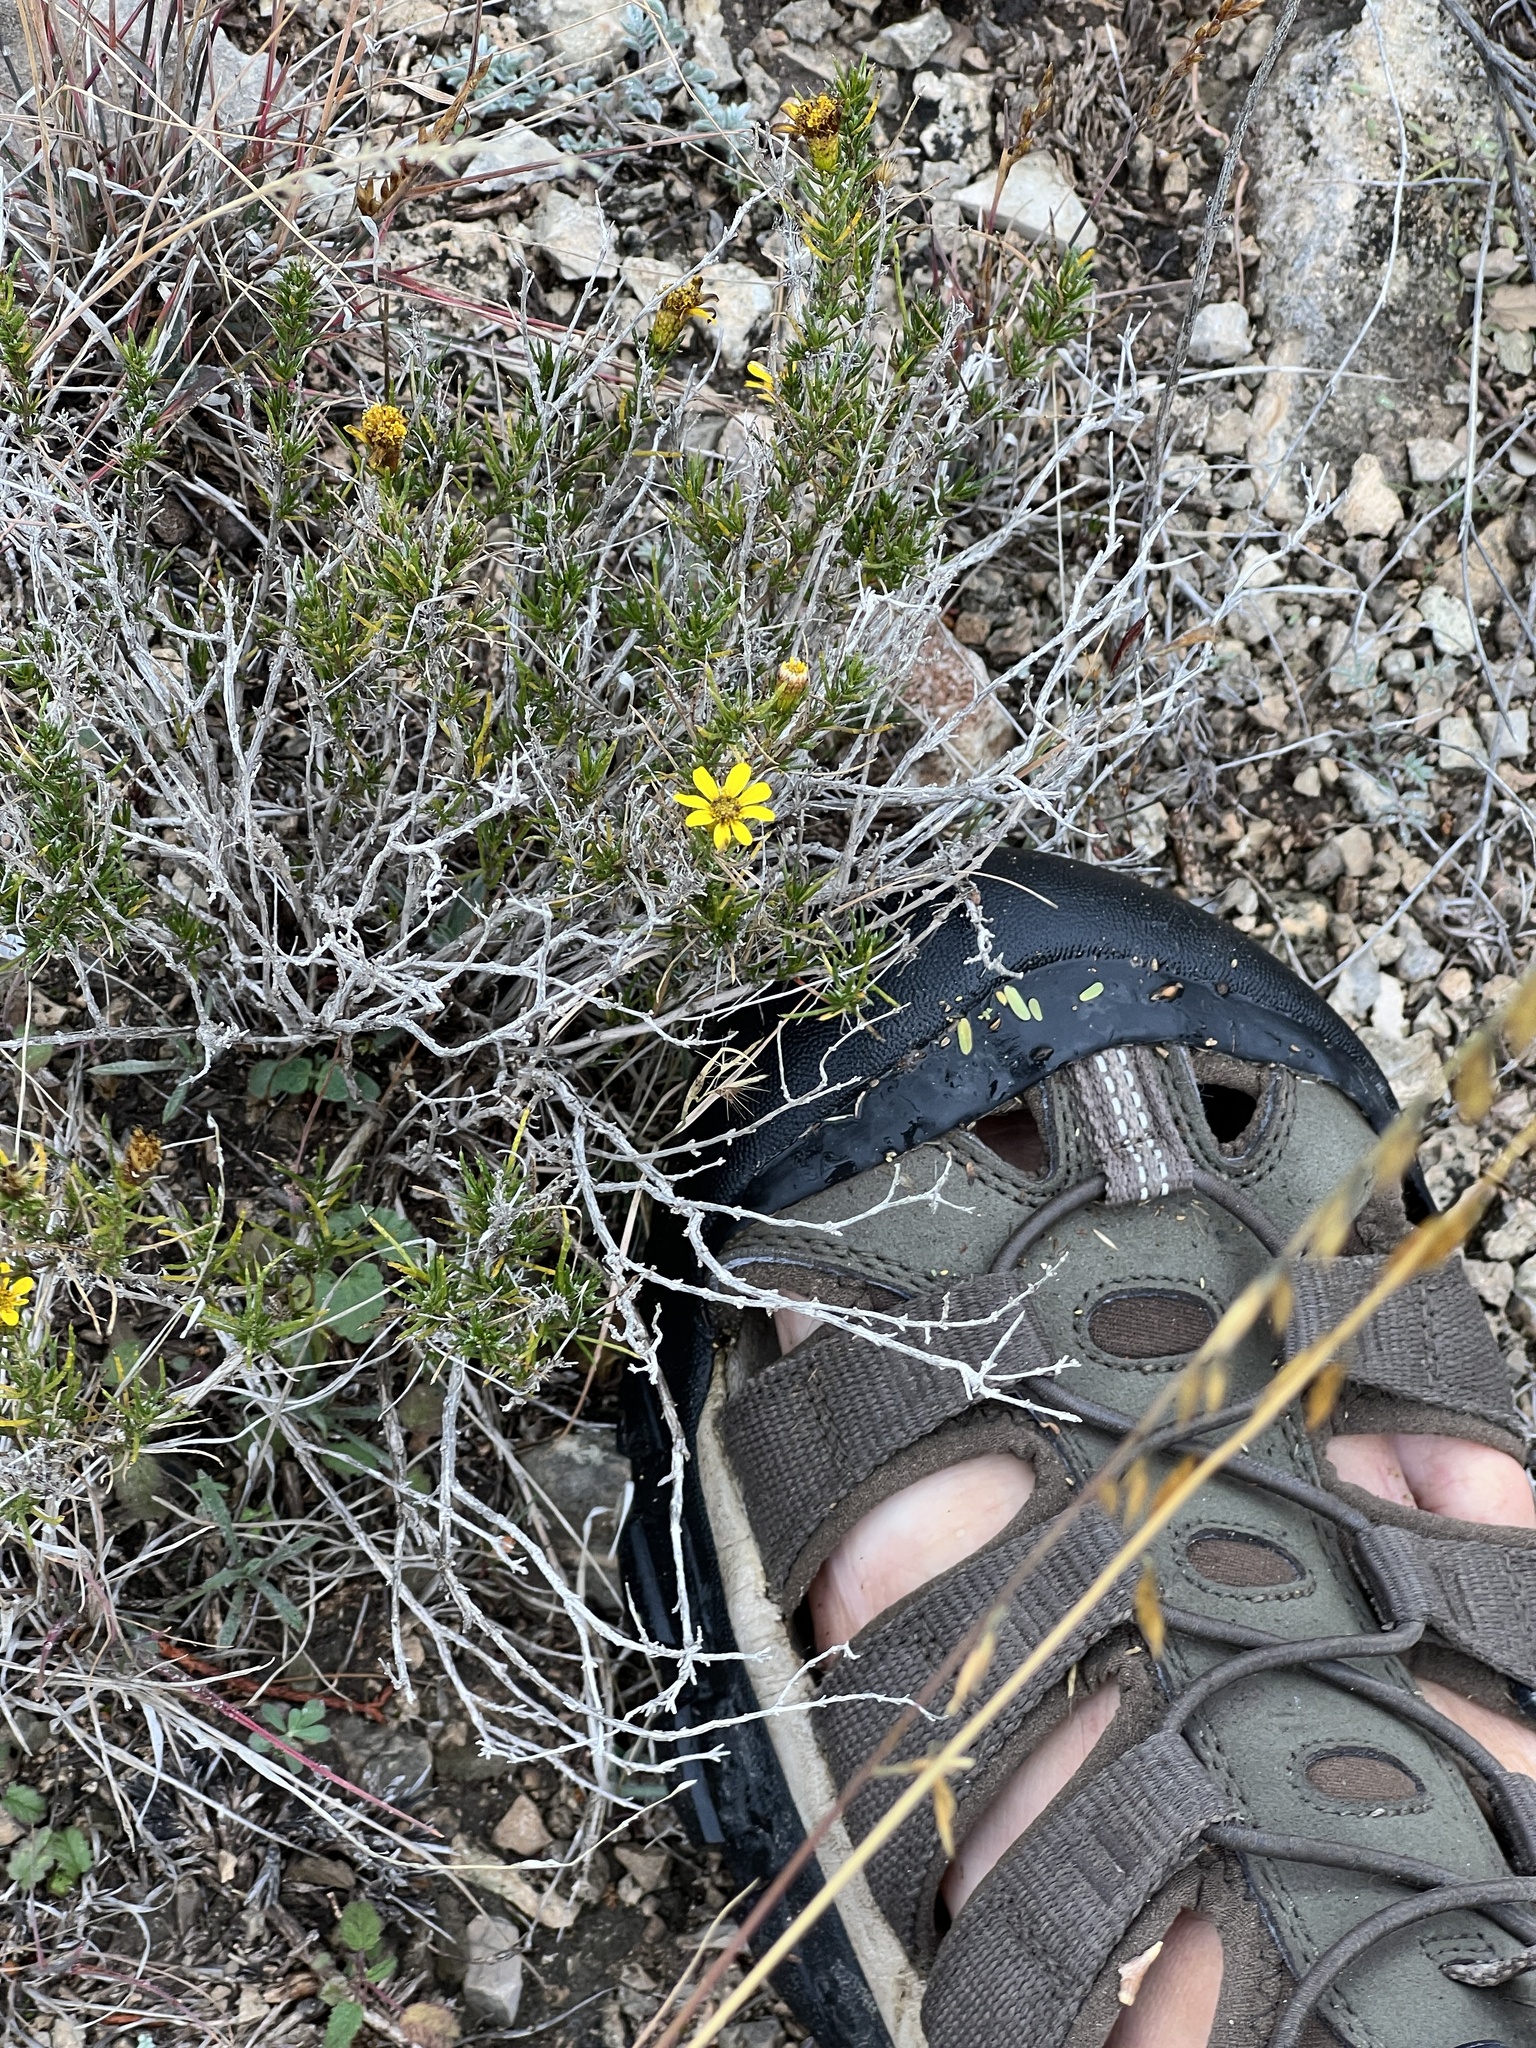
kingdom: Plantae
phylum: Tracheophyta
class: Magnoliopsida
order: Asterales
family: Asteraceae
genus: Thymophylla
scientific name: Thymophylla acerosa
